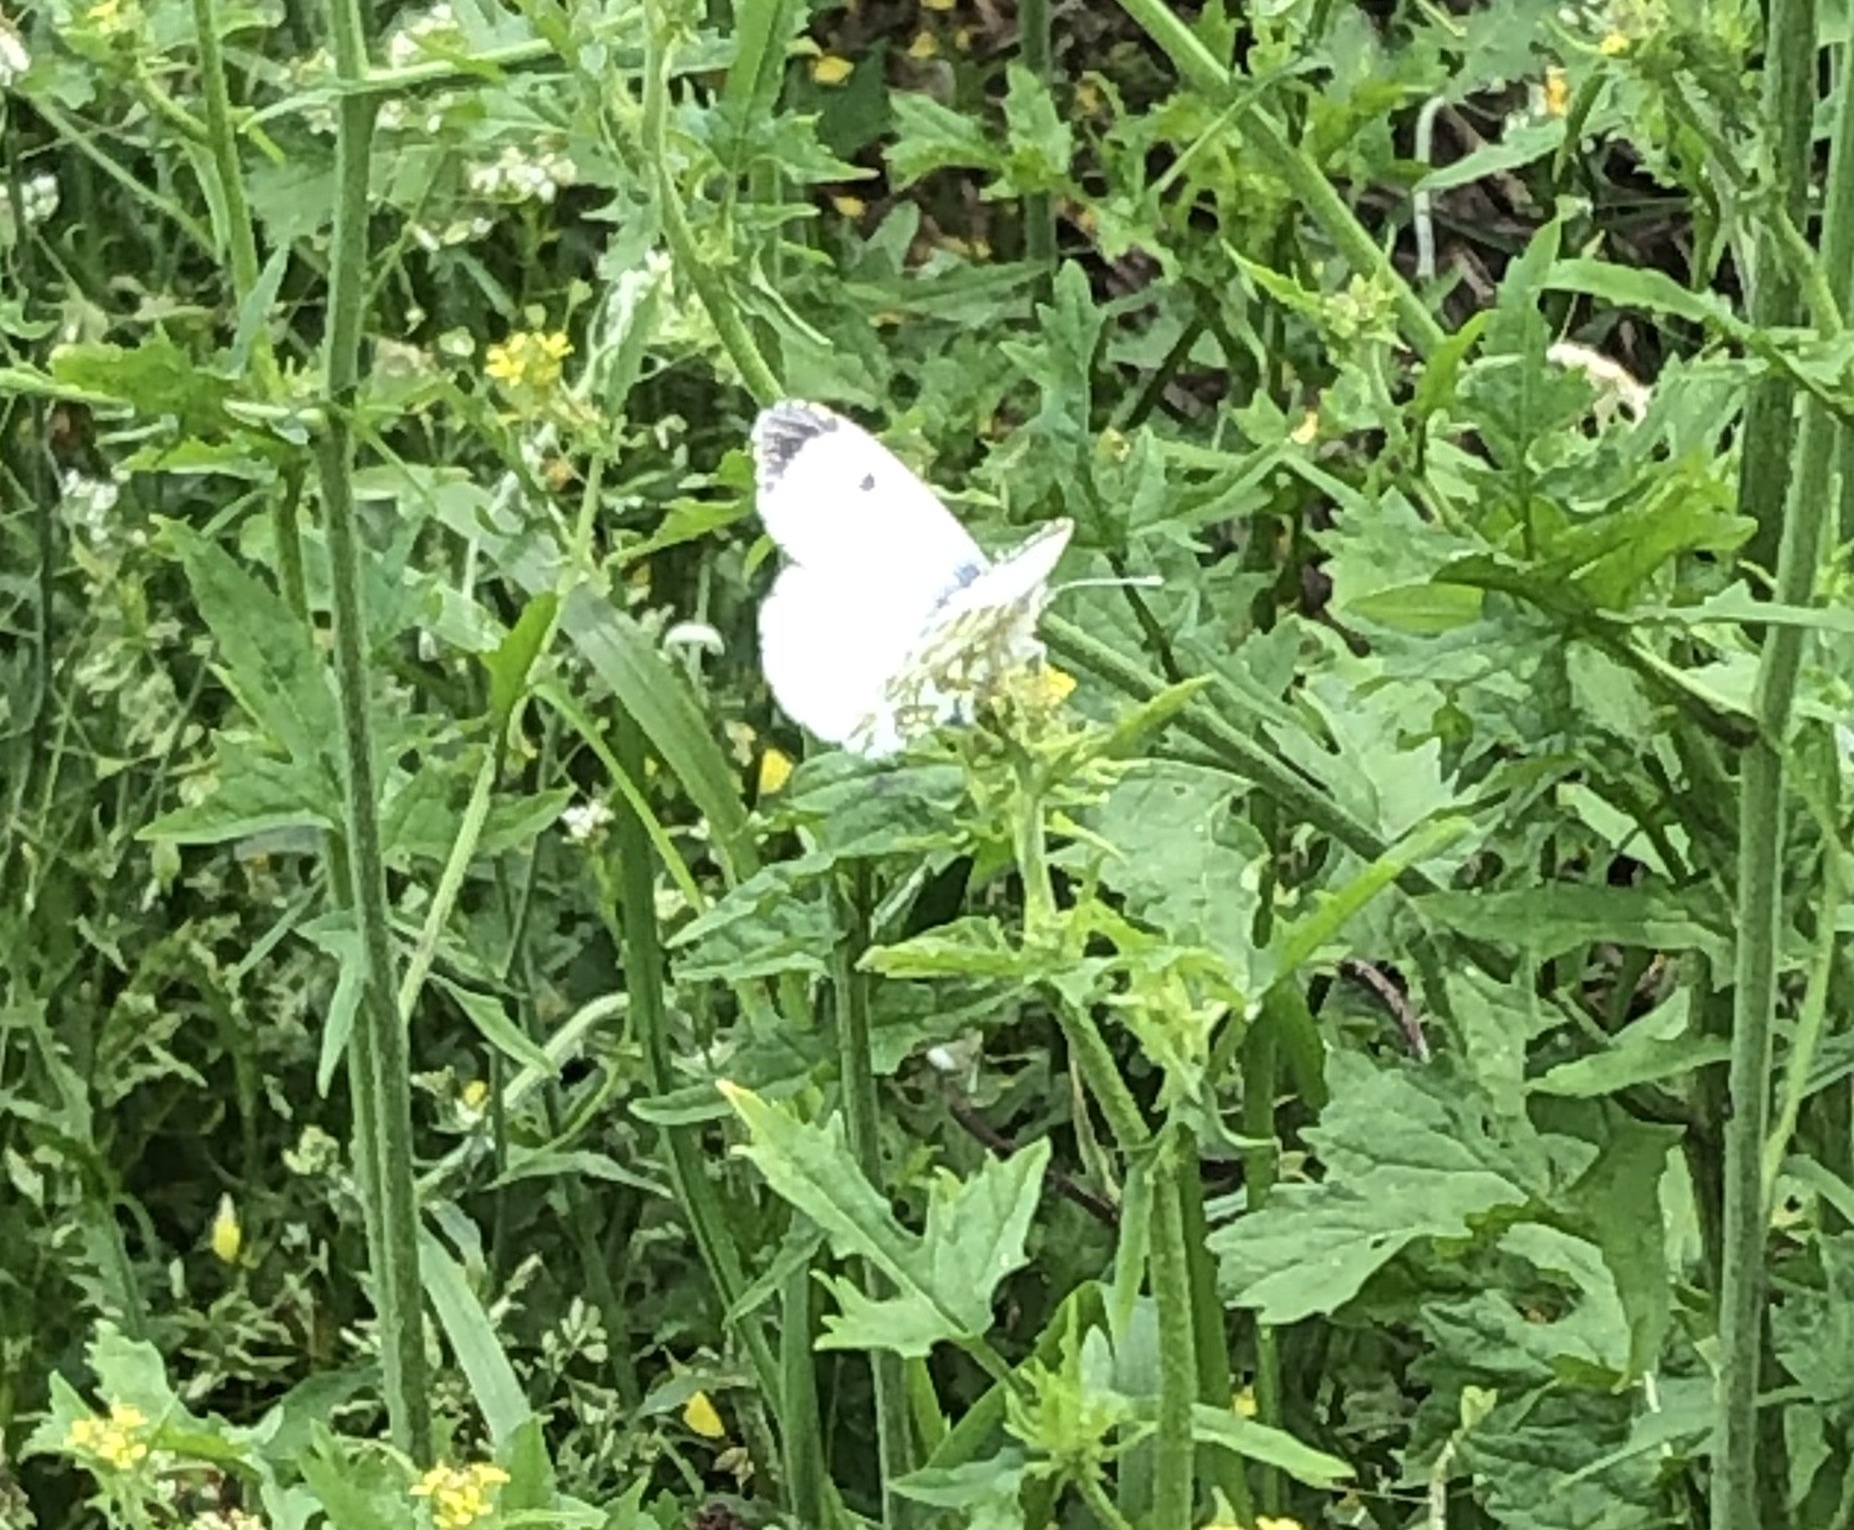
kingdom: Animalia
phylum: Arthropoda
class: Insecta
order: Lepidoptera
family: Pieridae
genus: Anthocharis
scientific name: Anthocharis cardamines
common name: Orange-tip
